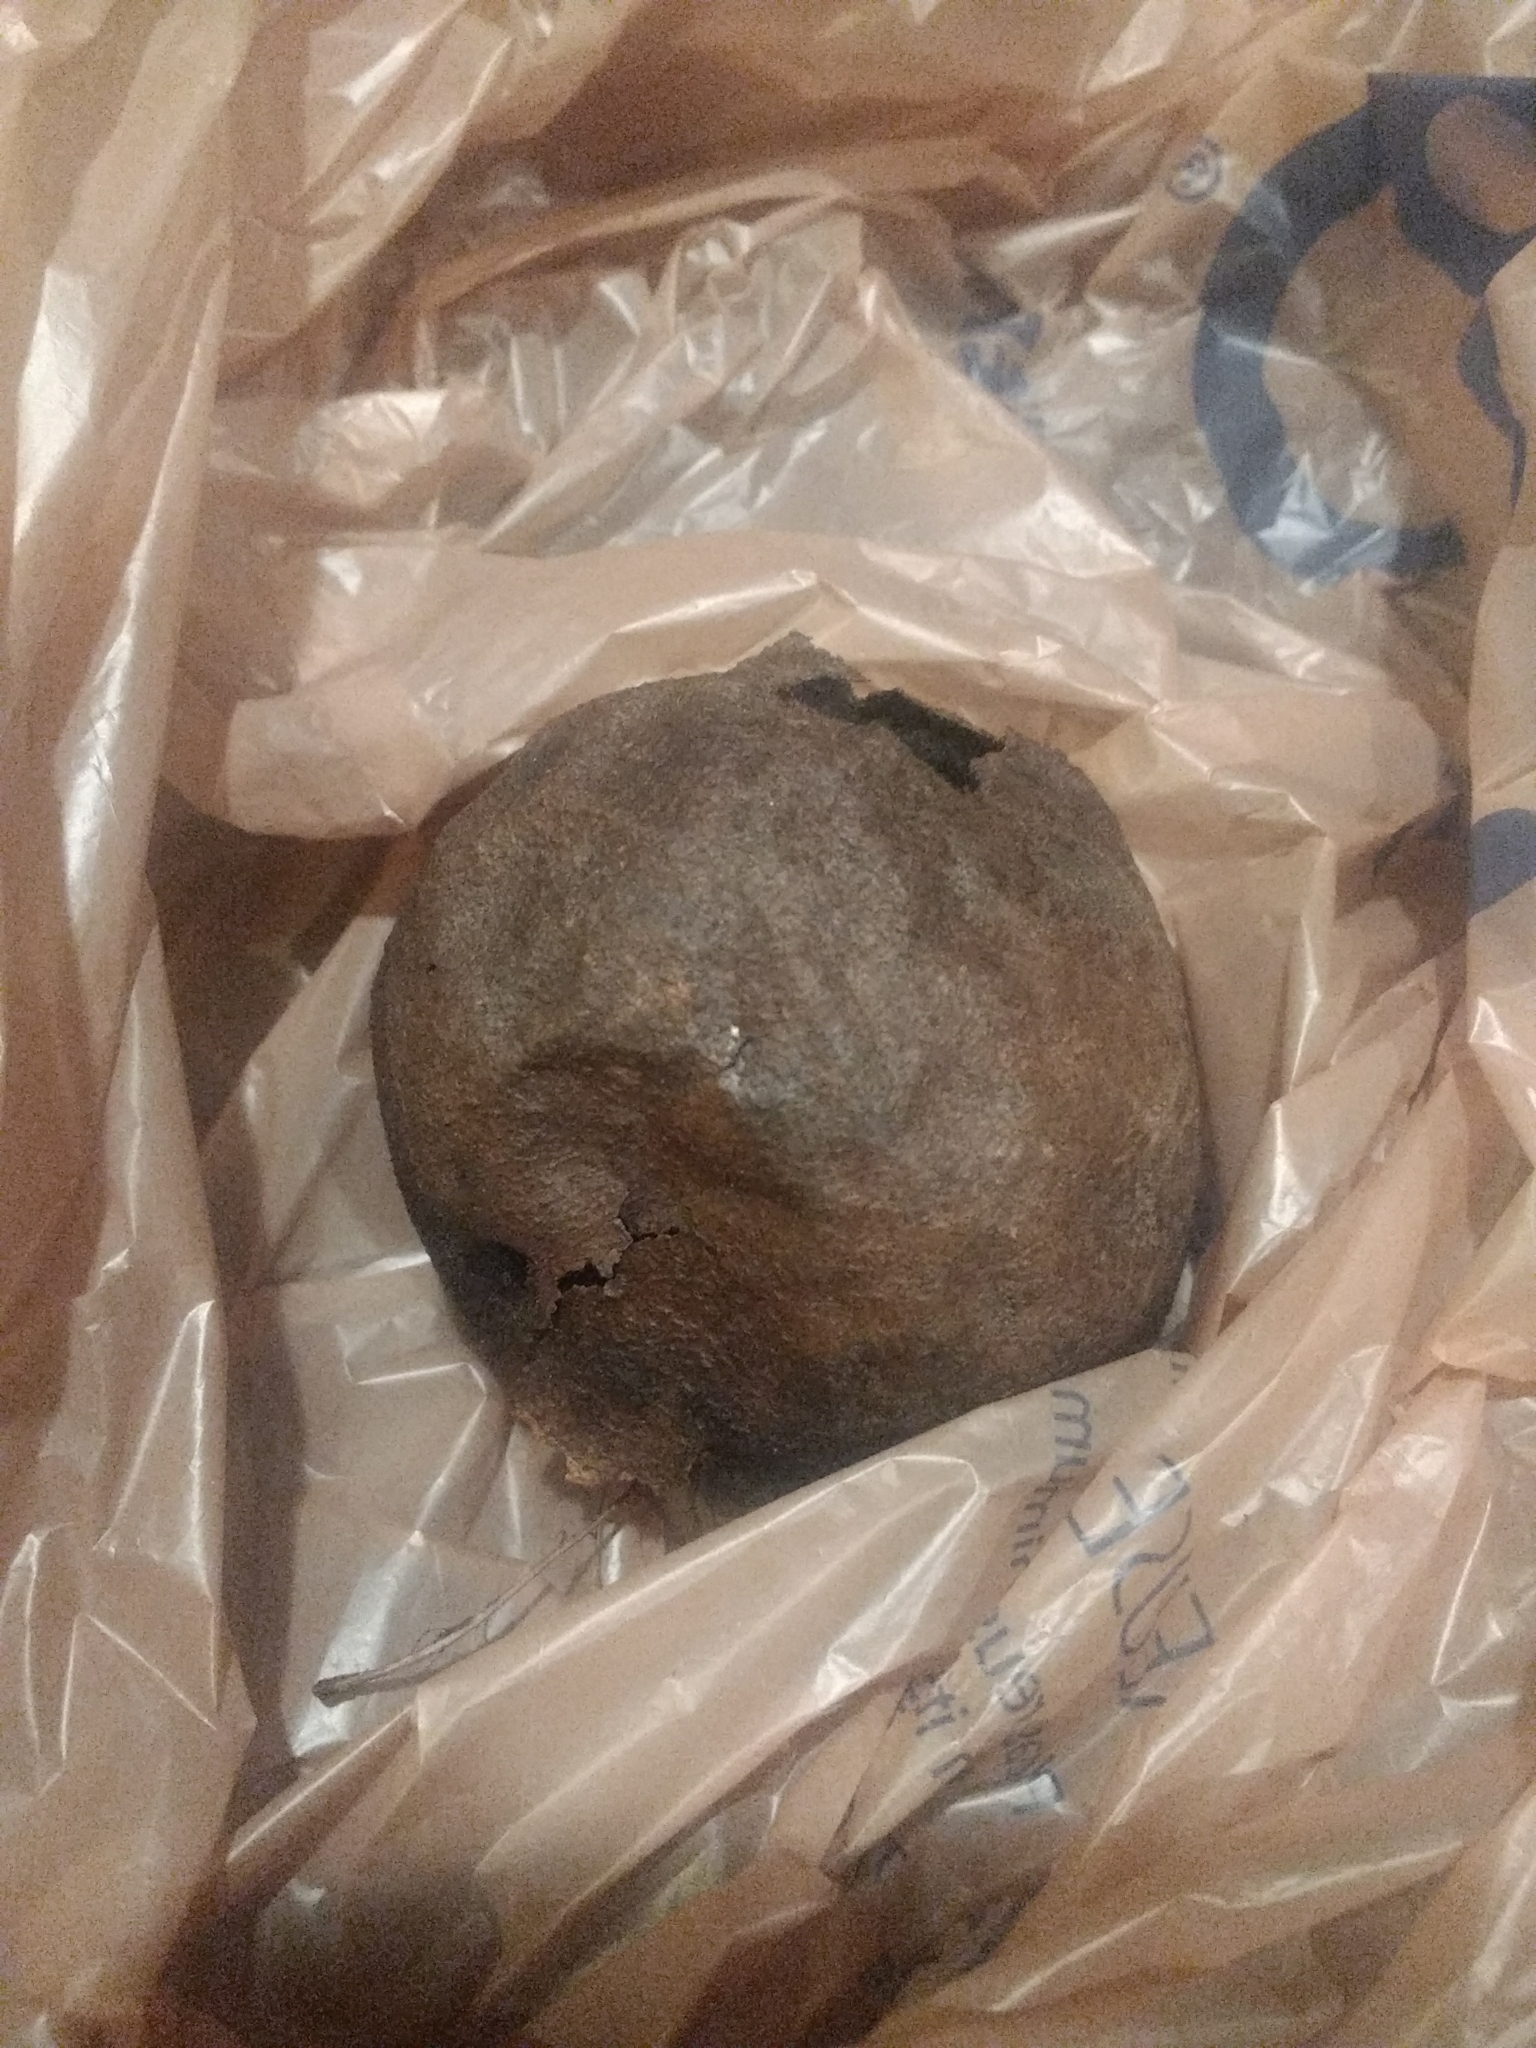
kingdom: Plantae
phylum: Tracheophyta
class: Magnoliopsida
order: Fagales
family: Juglandaceae
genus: Juglans
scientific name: Juglans nigra
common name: Black walnut
